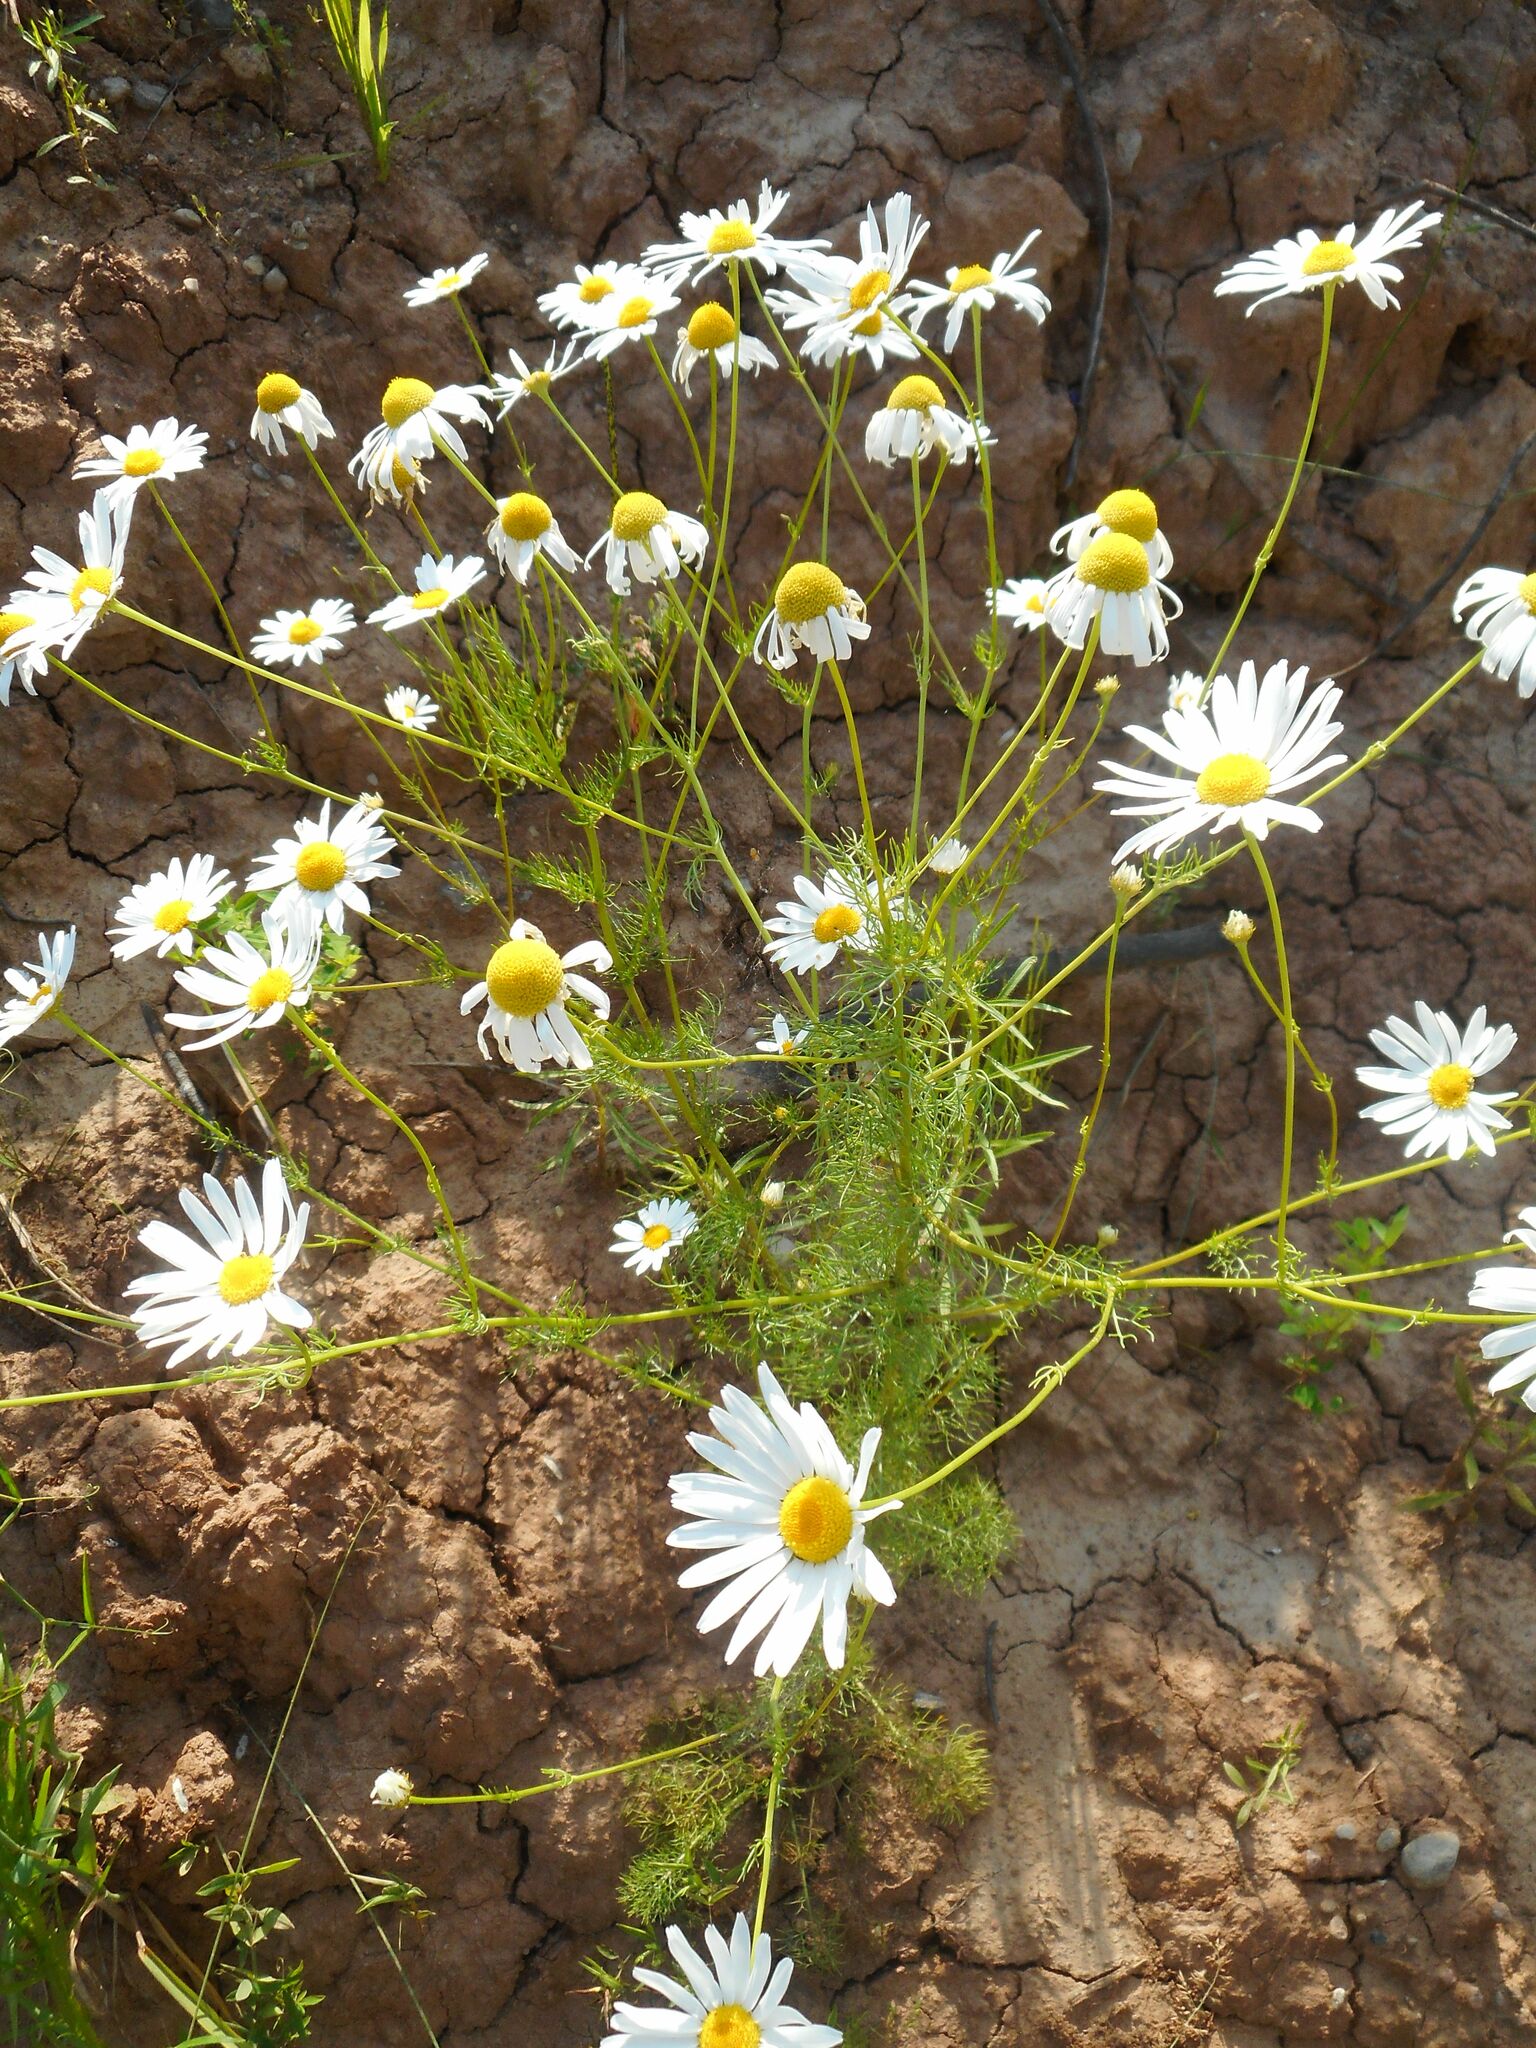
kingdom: Plantae
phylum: Tracheophyta
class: Magnoliopsida
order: Asterales
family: Asteraceae
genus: Tripleurospermum
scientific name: Tripleurospermum inodorum
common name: Scentless mayweed
